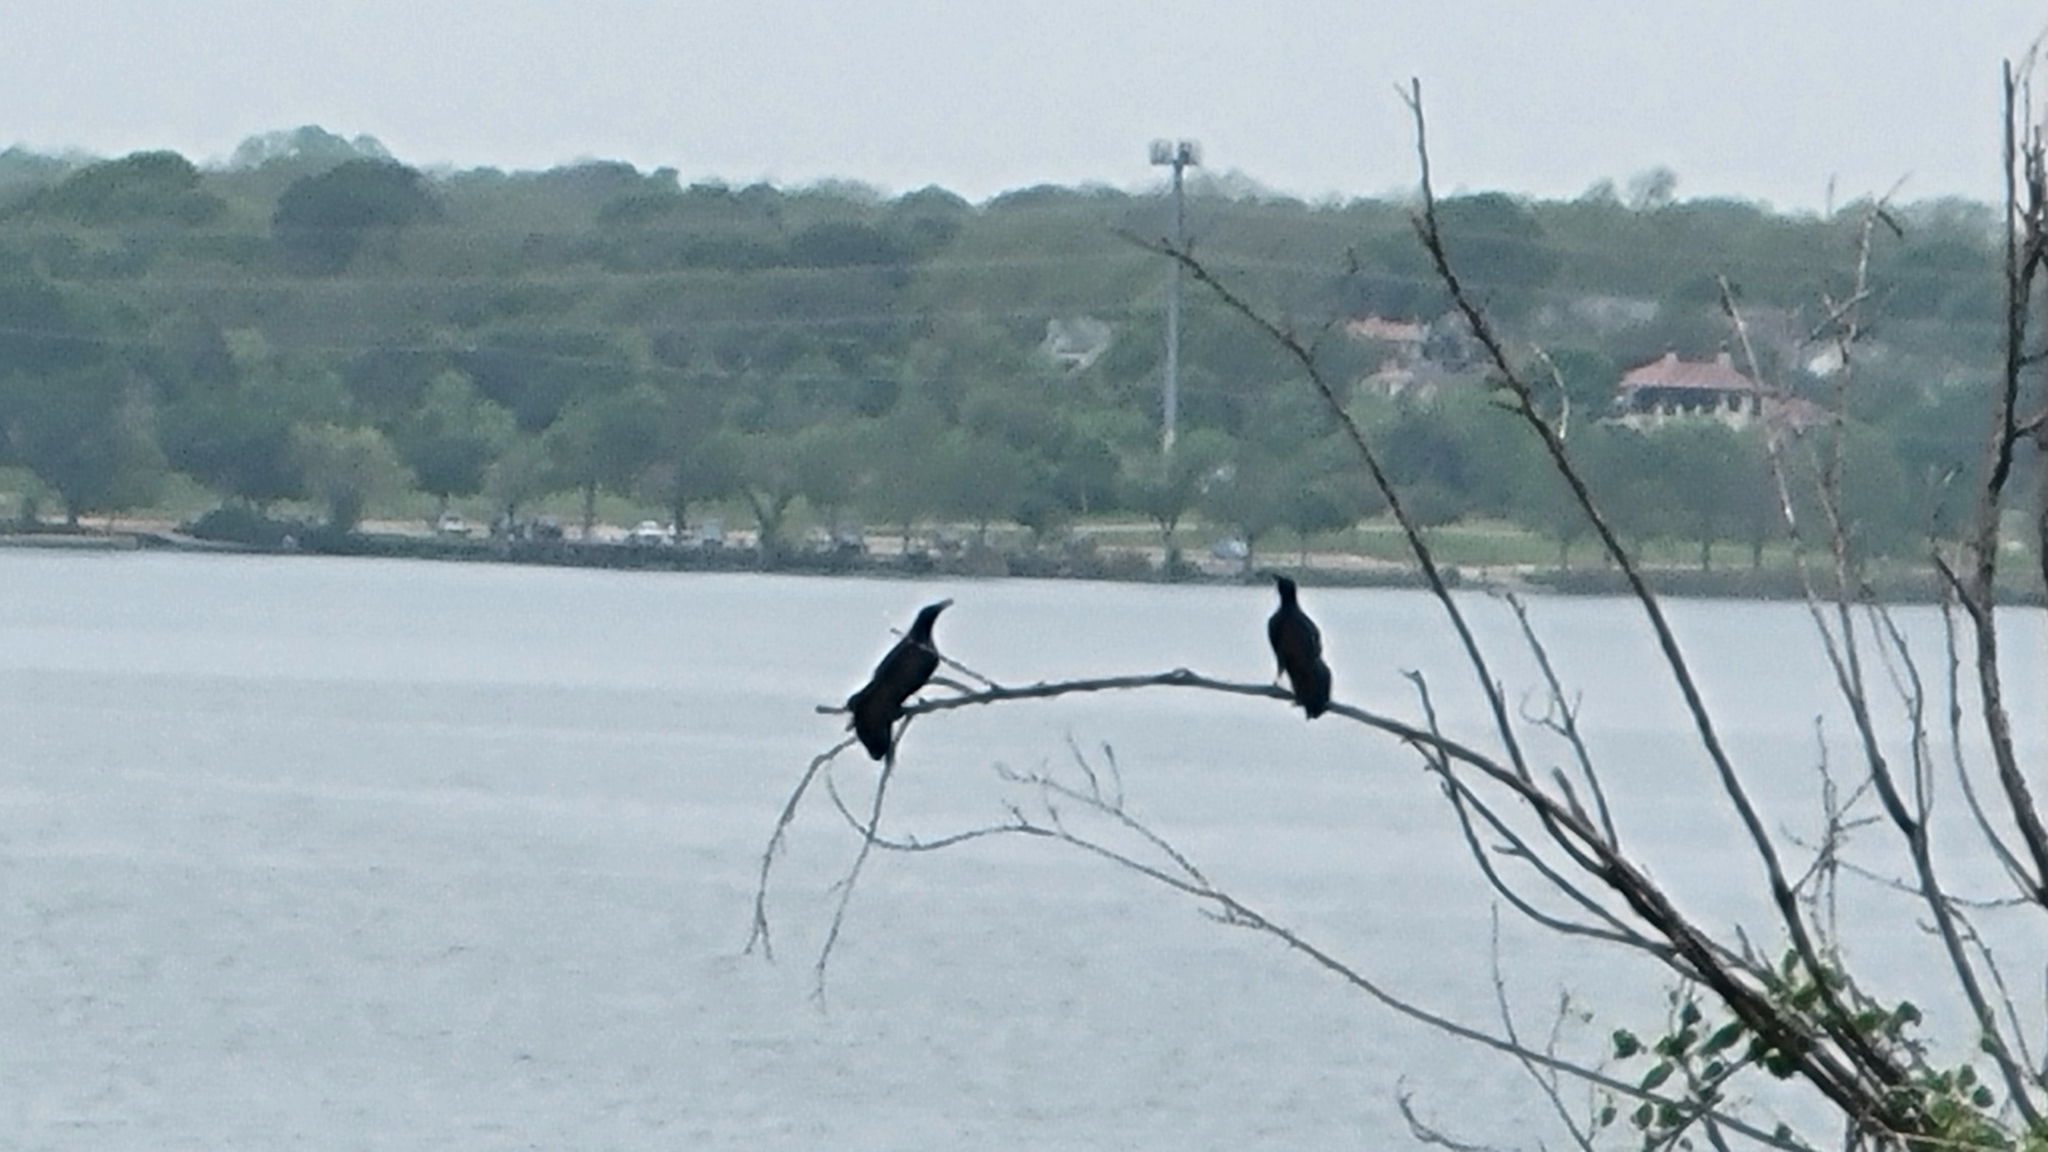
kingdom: Animalia
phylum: Chordata
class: Aves
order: Passeriformes
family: Icteridae
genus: Quiscalus
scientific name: Quiscalus mexicanus
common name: Great-tailed grackle
